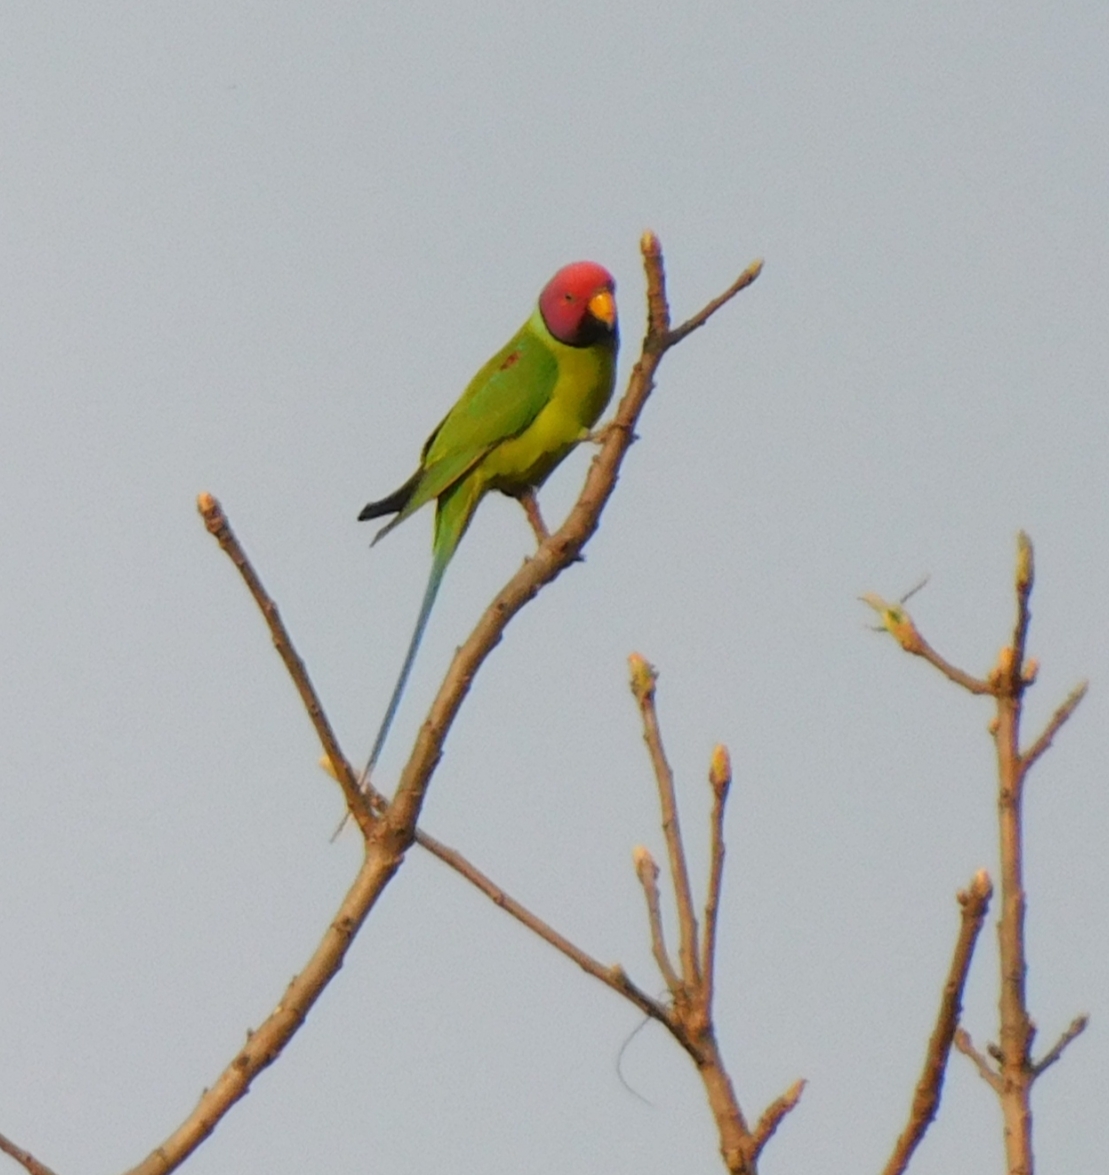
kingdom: Animalia
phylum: Chordata
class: Aves
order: Psittaciformes
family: Psittacidae
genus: Psittacula
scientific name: Psittacula cyanocephala
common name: Plum-headed parakeet
